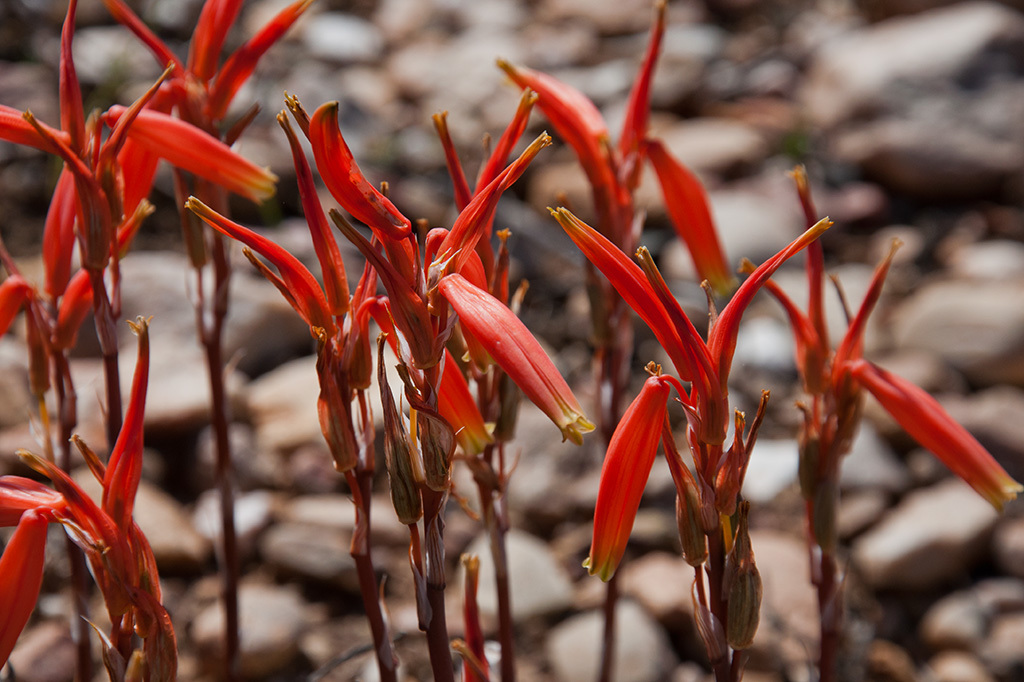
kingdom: Plantae
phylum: Tracheophyta
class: Liliopsida
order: Asparagales
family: Asphodelaceae
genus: Aloe
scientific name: Aloe humilis
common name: Dwarf hedgehog aloe
